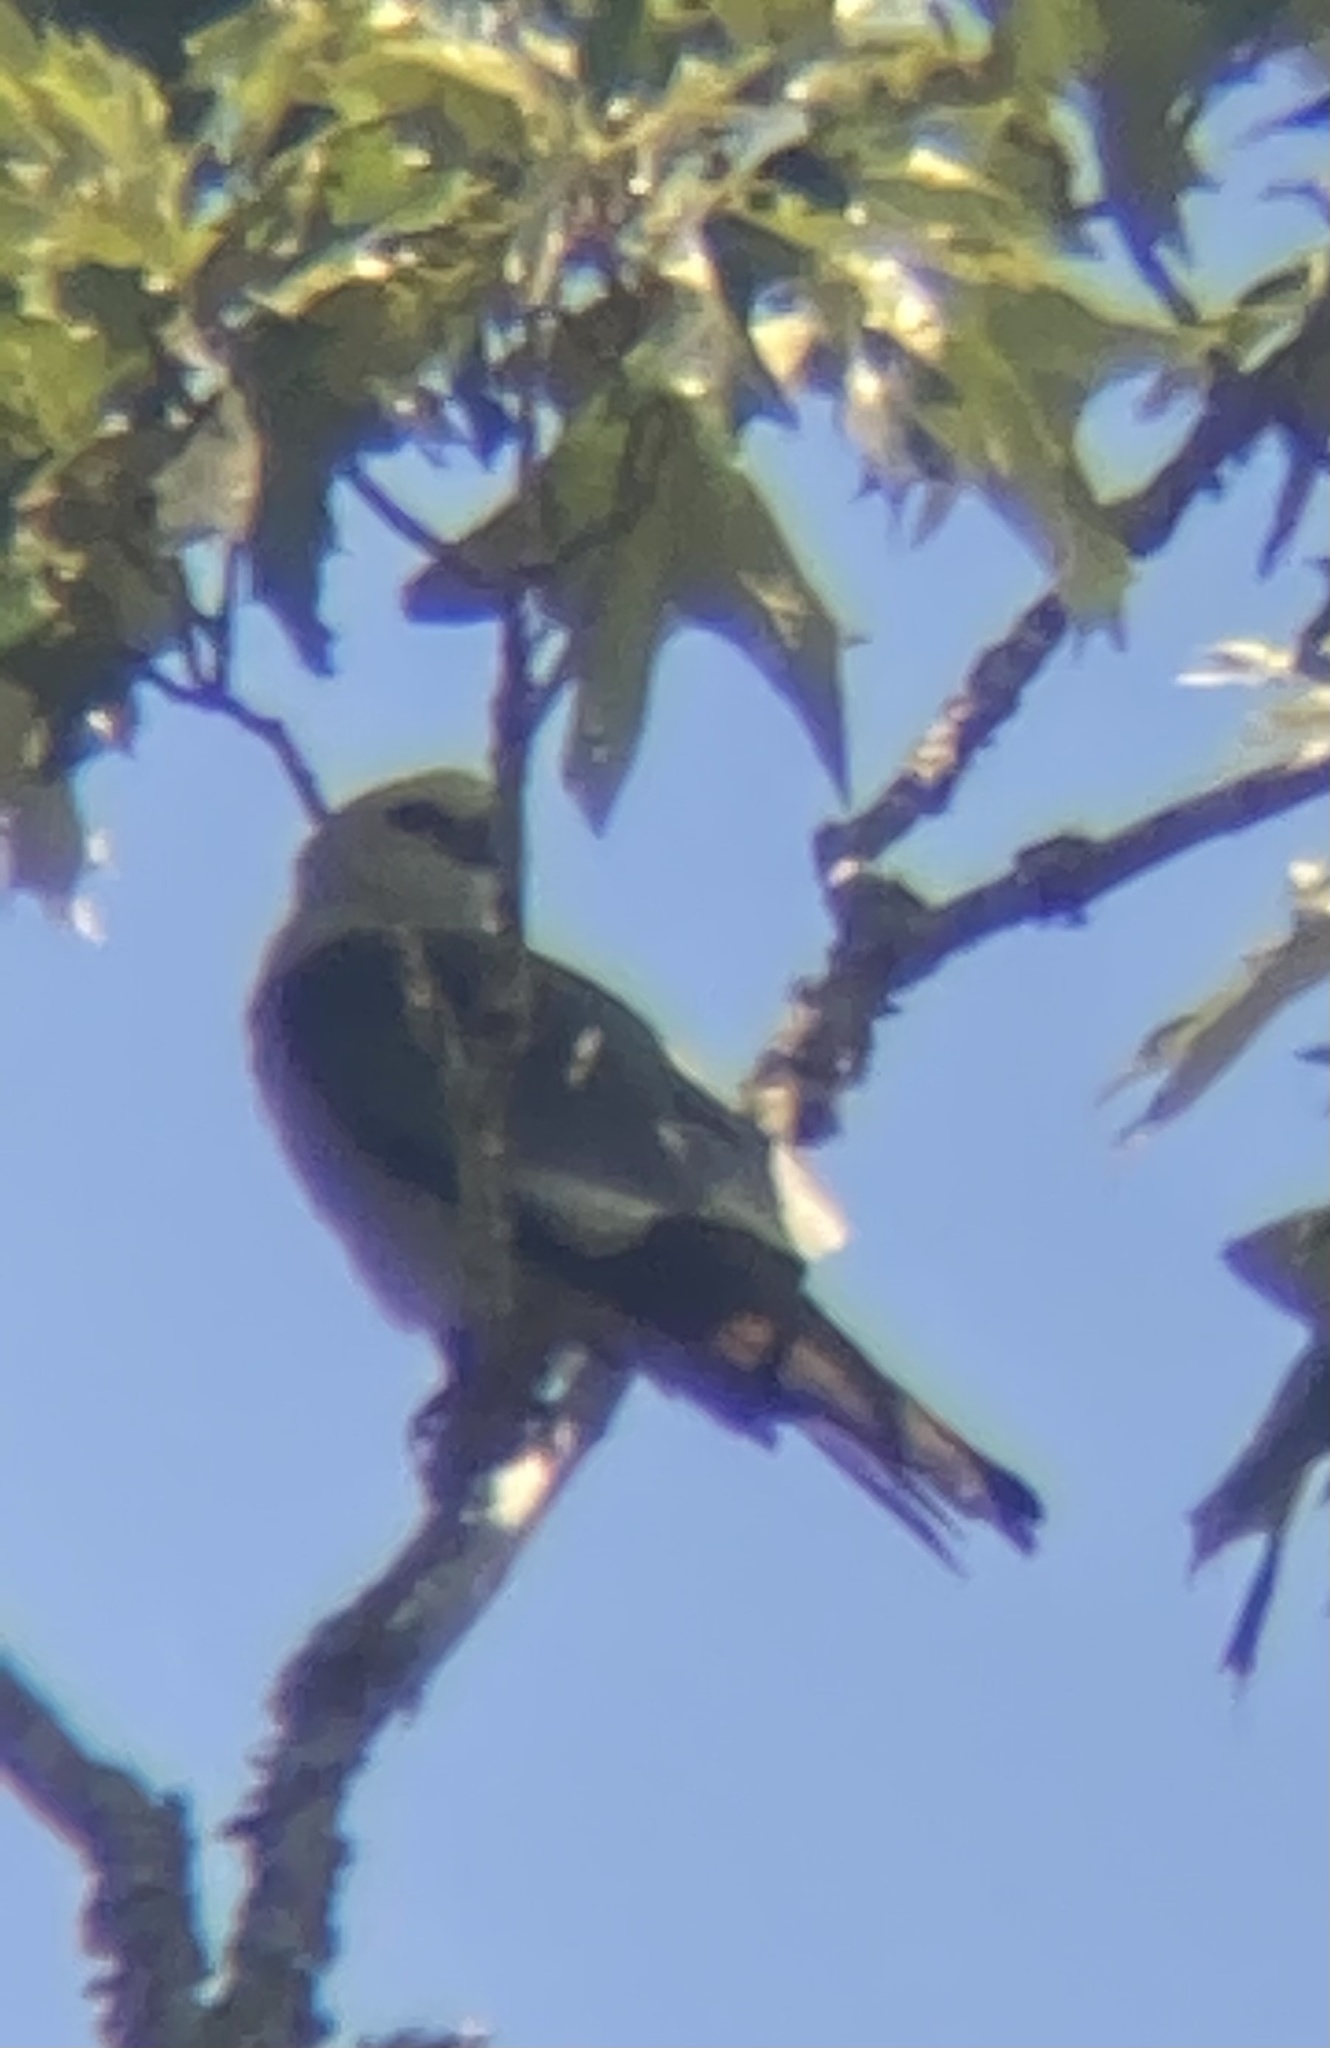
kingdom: Animalia
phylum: Chordata
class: Aves
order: Accipitriformes
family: Accipitridae
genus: Ictinia
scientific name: Ictinia mississippiensis
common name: Mississippi kite
